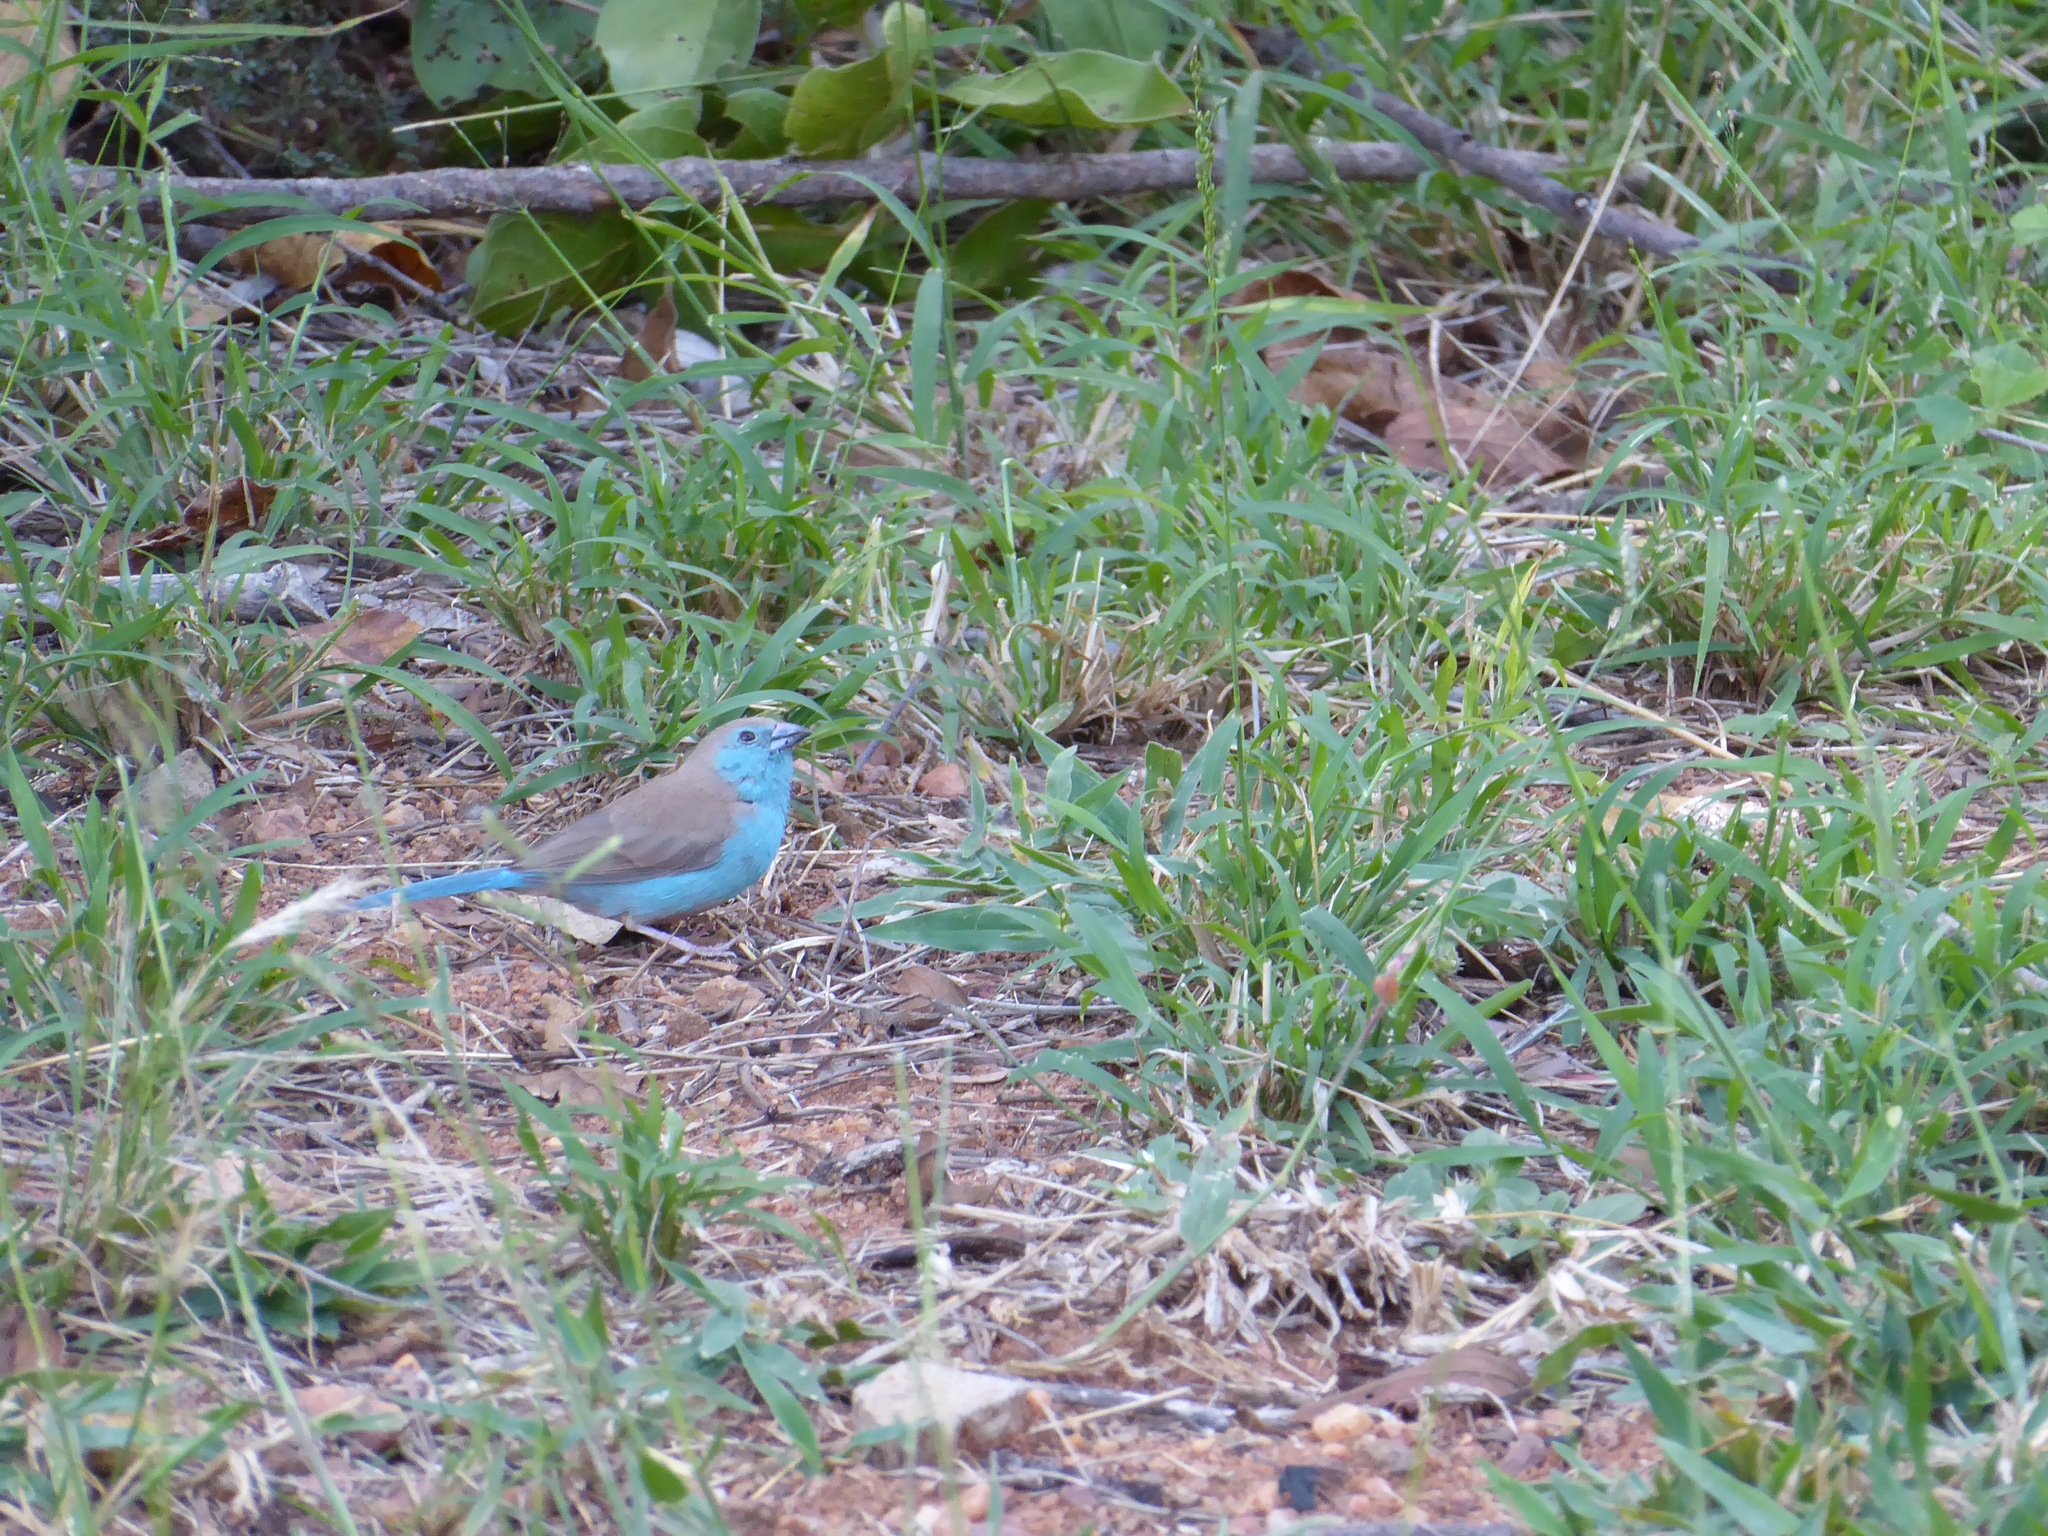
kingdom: Animalia
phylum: Chordata
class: Aves
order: Passeriformes
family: Estrildidae
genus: Uraeginthus
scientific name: Uraeginthus angolensis
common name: Blue waxbill
